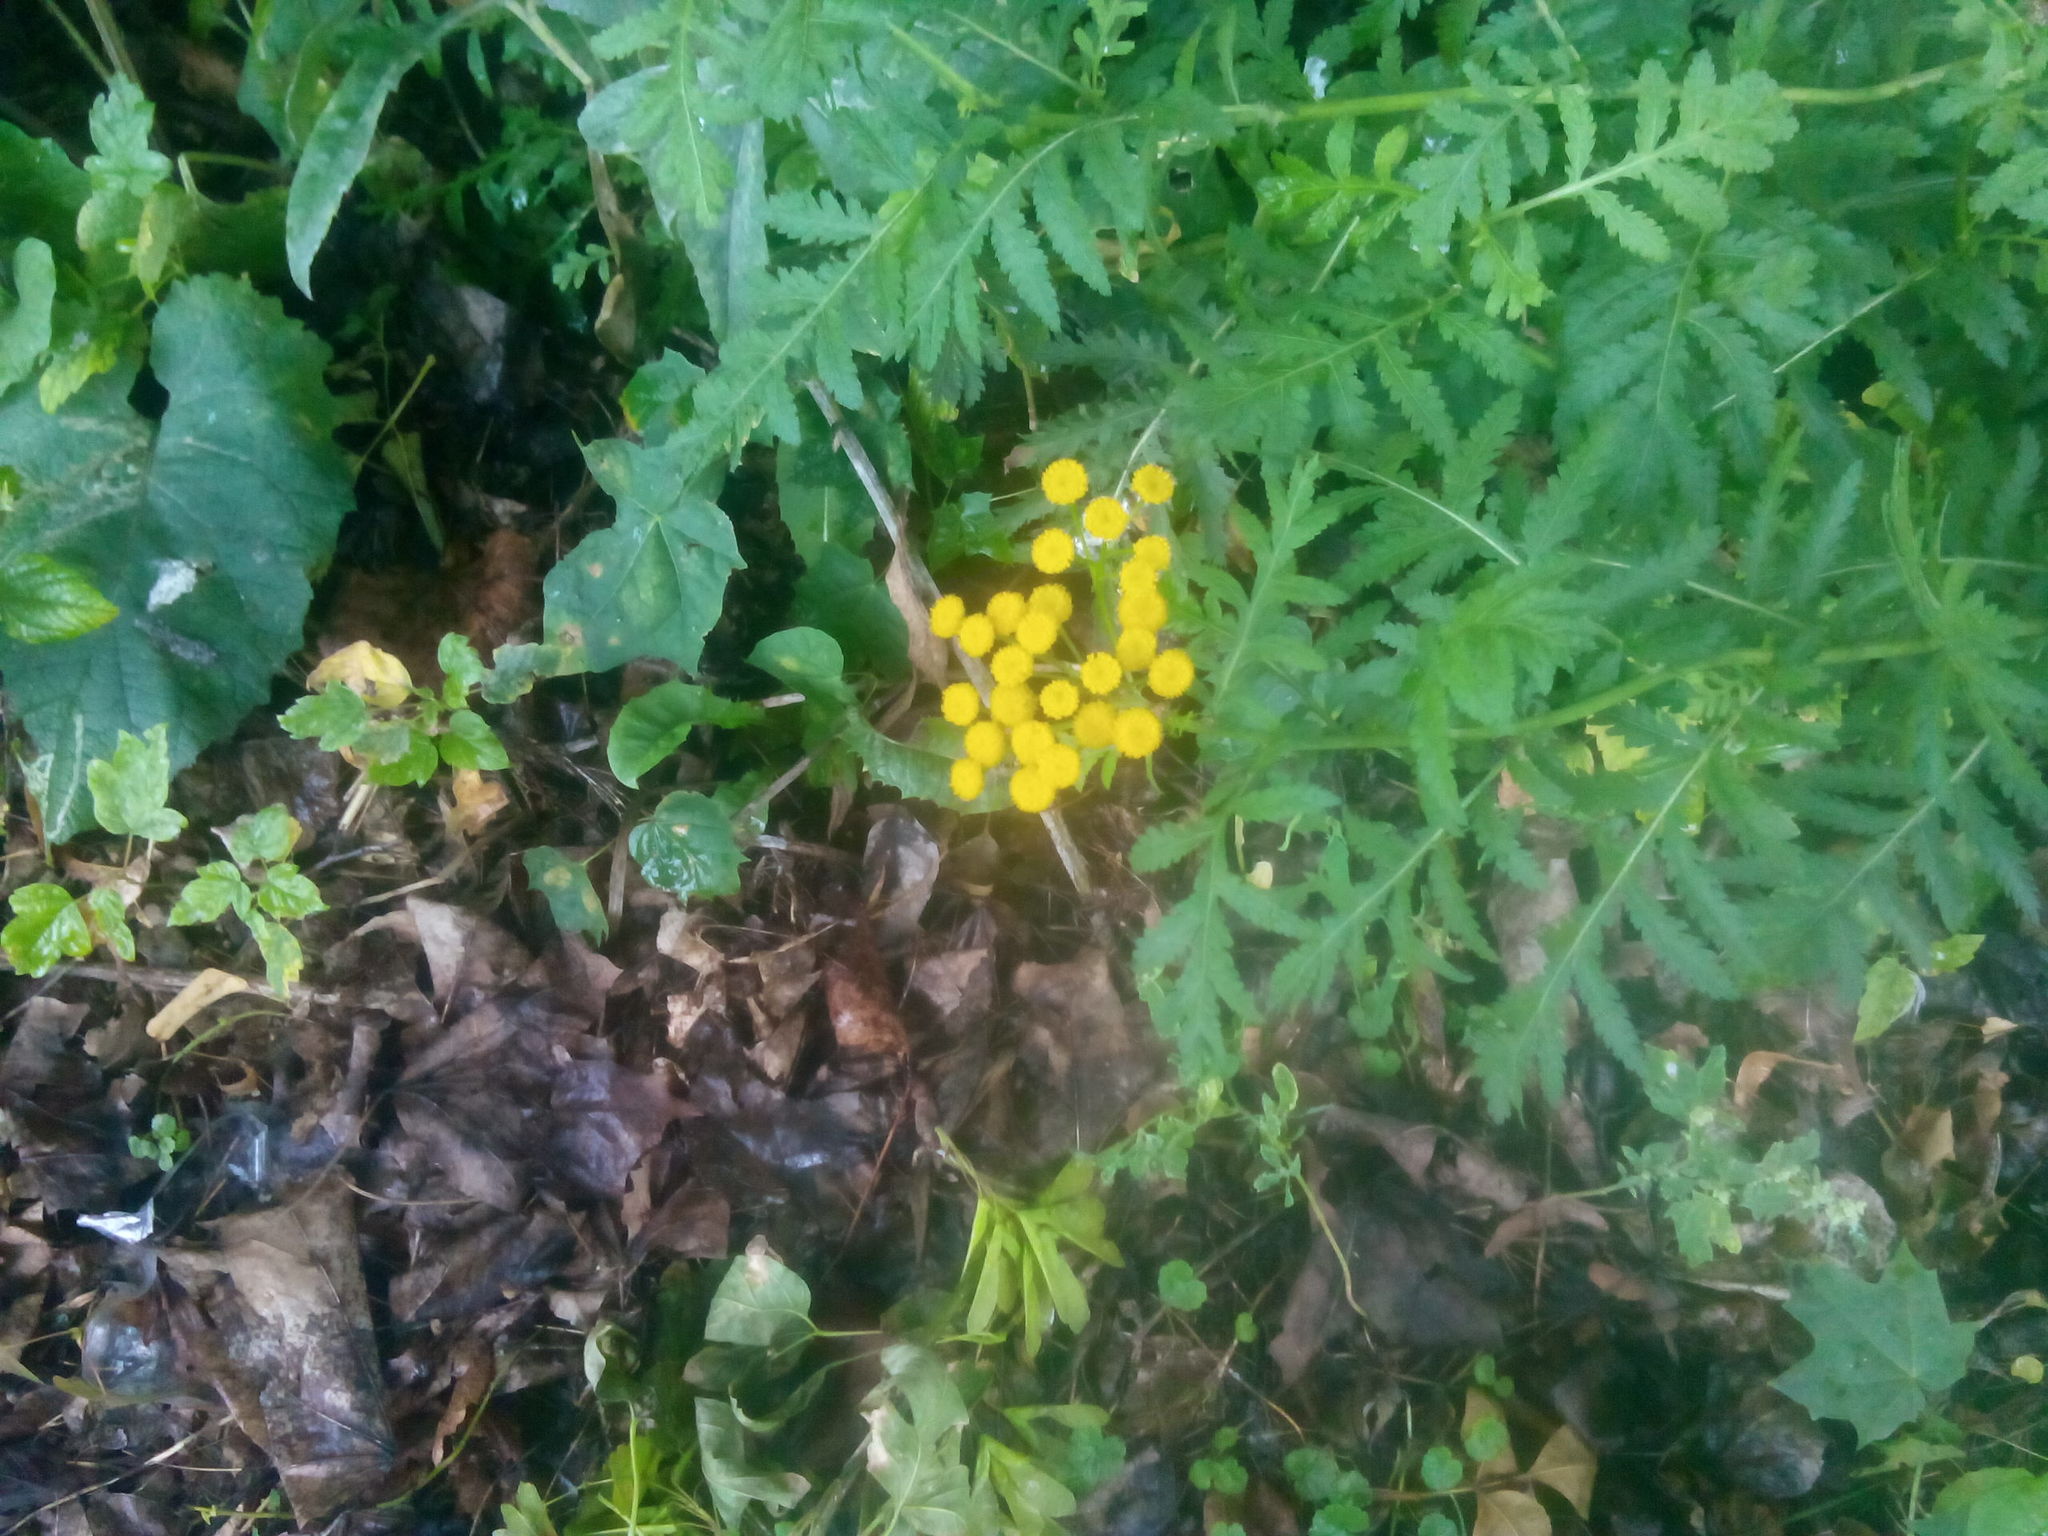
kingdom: Plantae
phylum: Tracheophyta
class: Magnoliopsida
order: Asterales
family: Asteraceae
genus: Tanacetum
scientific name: Tanacetum vulgare
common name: Common tansy
